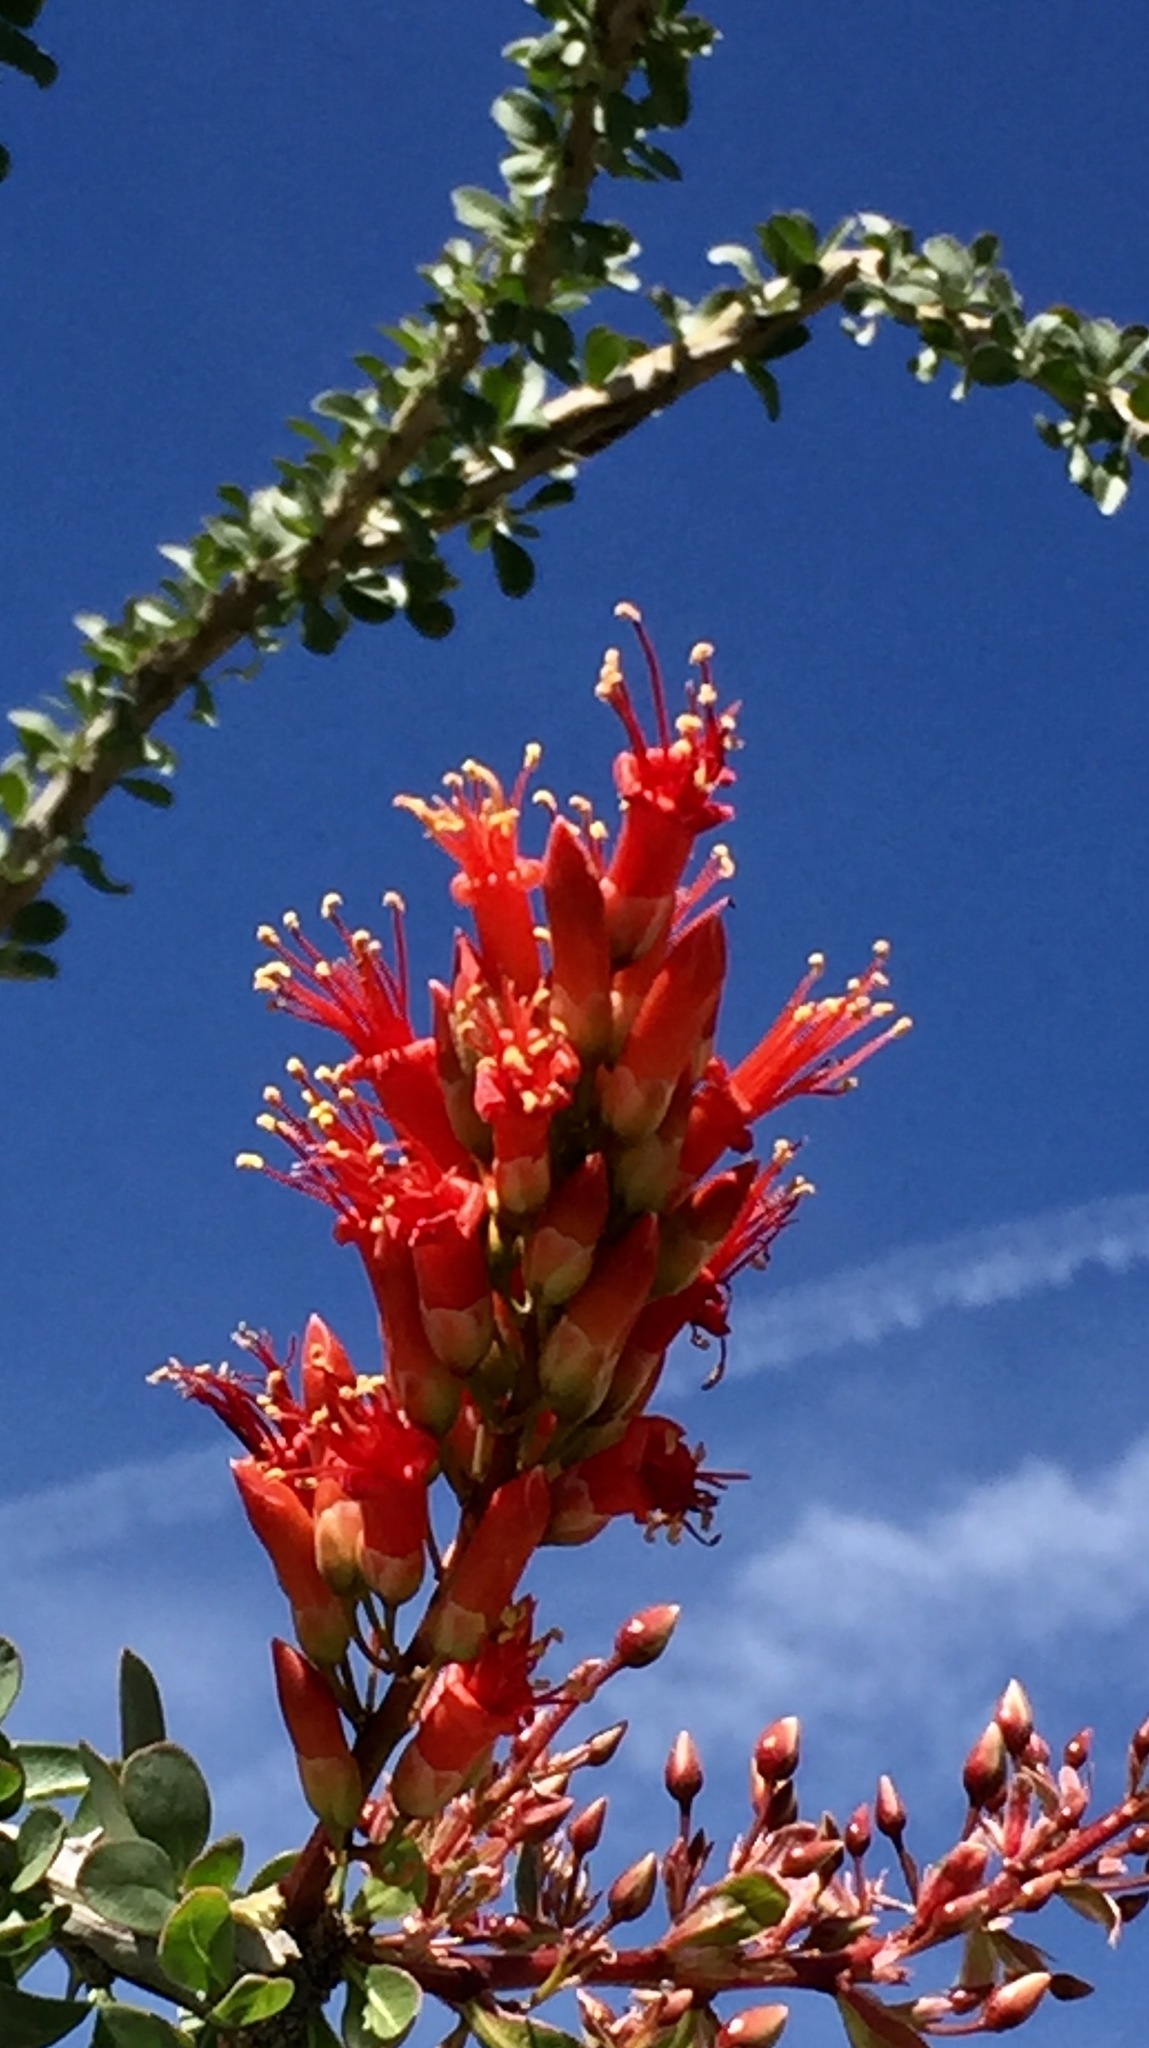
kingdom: Plantae
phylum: Tracheophyta
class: Magnoliopsida
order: Ericales
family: Fouquieriaceae
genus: Fouquieria
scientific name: Fouquieria splendens
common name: Vine-cactus
